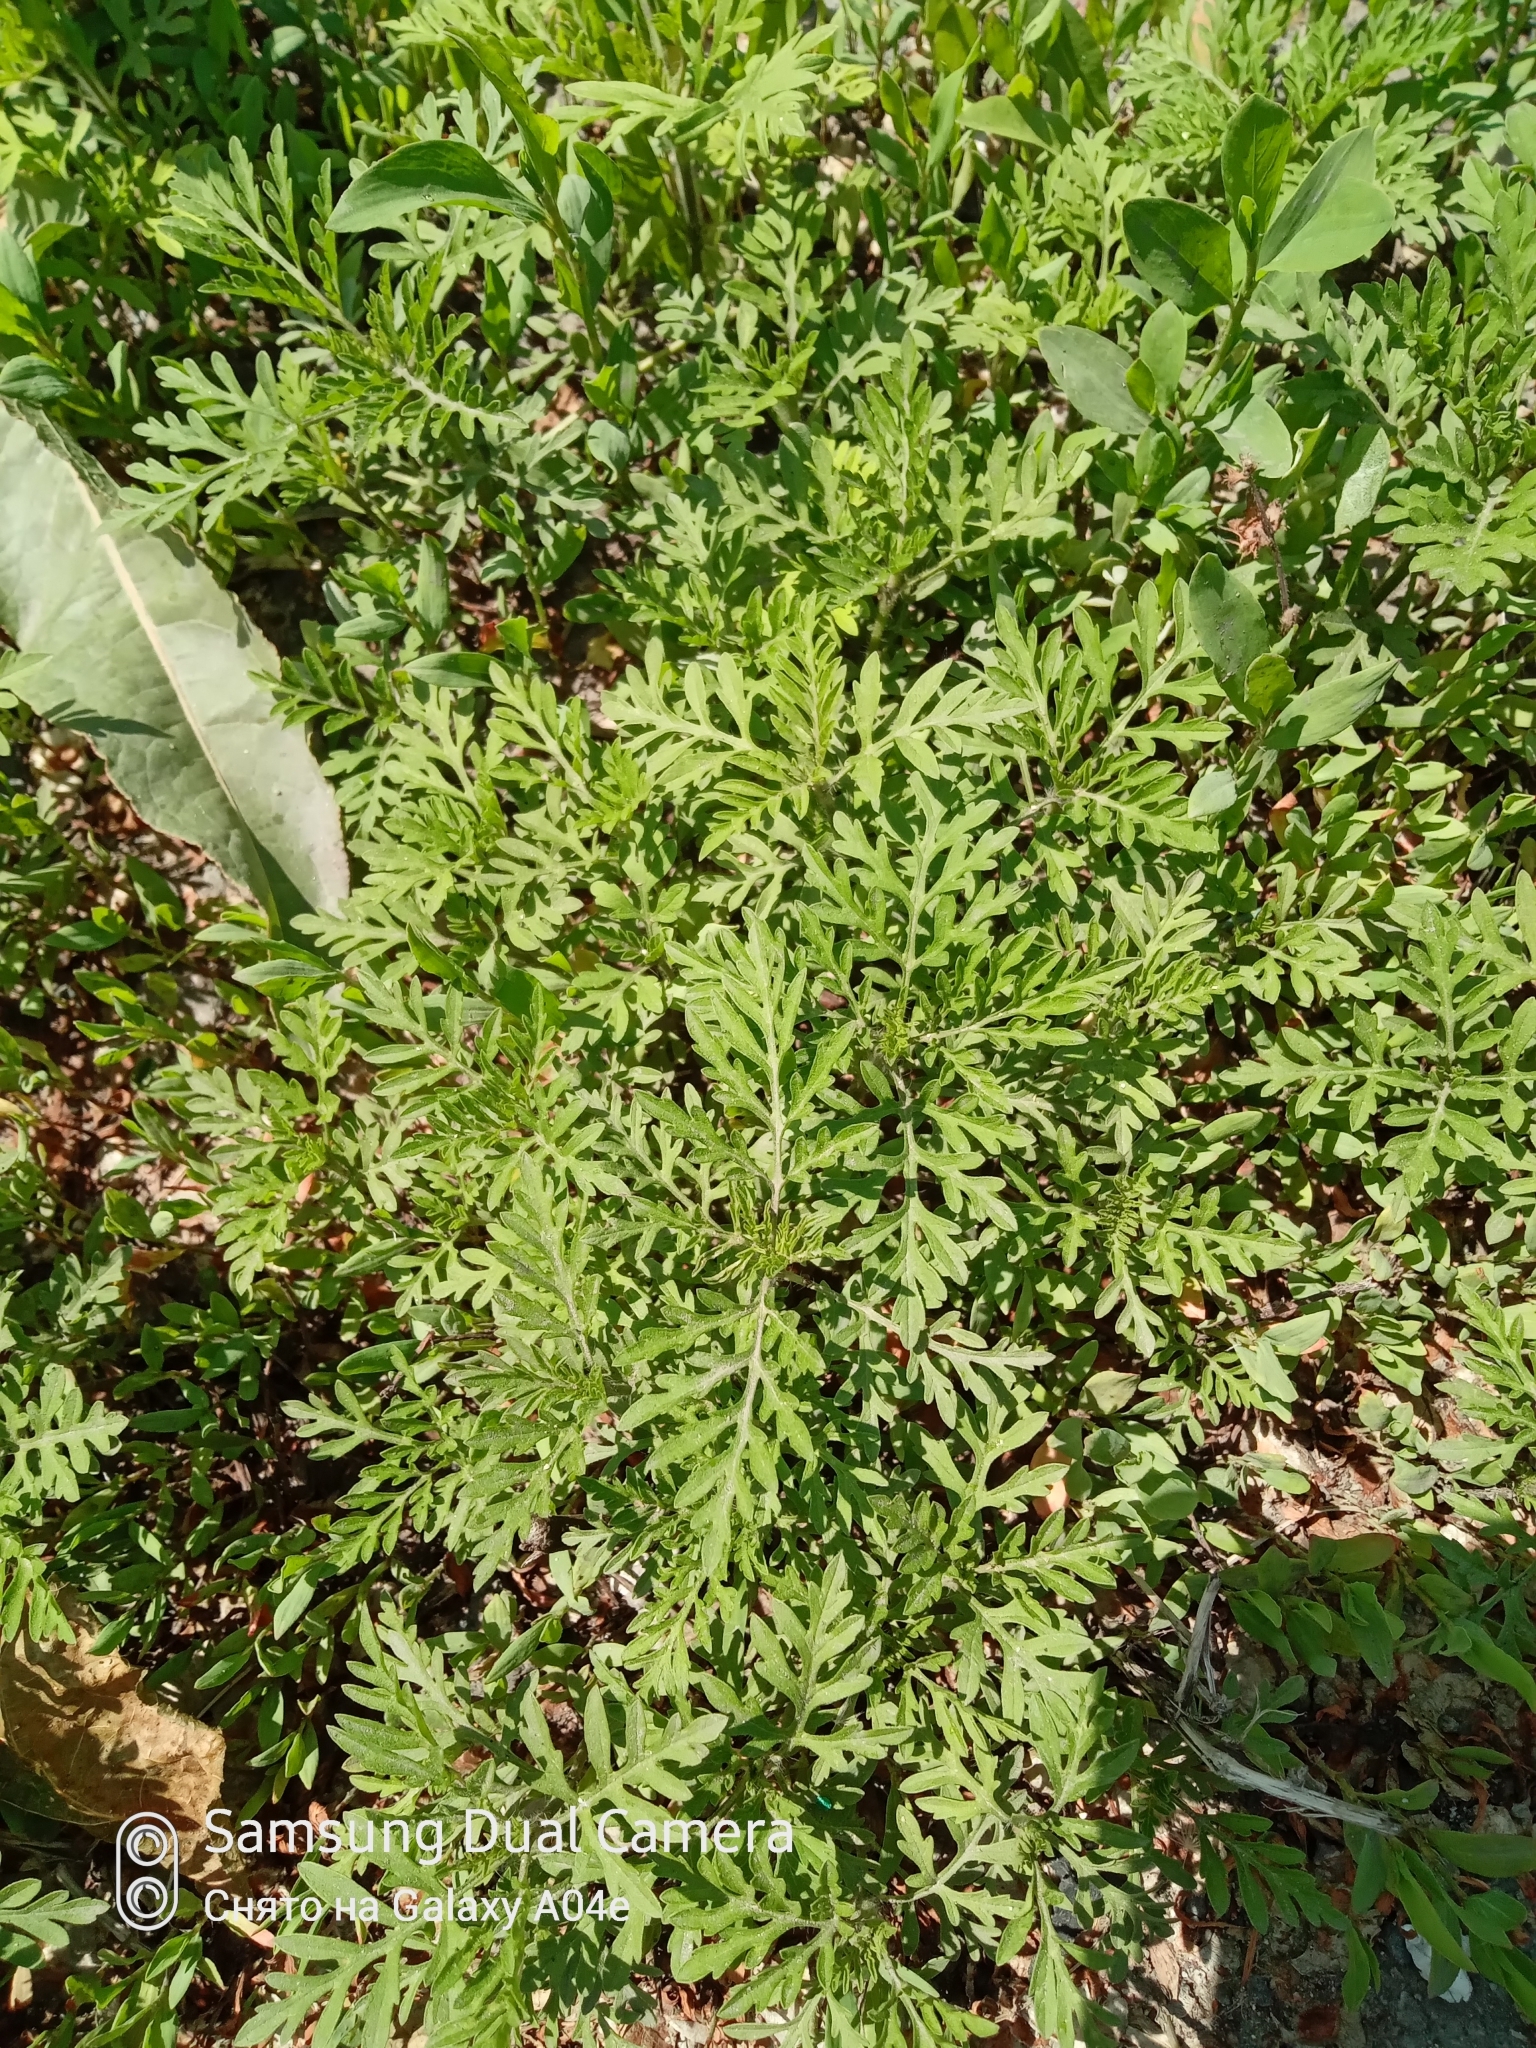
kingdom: Plantae
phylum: Tracheophyta
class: Magnoliopsida
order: Asterales
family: Asteraceae
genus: Ambrosia
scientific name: Ambrosia artemisiifolia
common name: Annual ragweed
